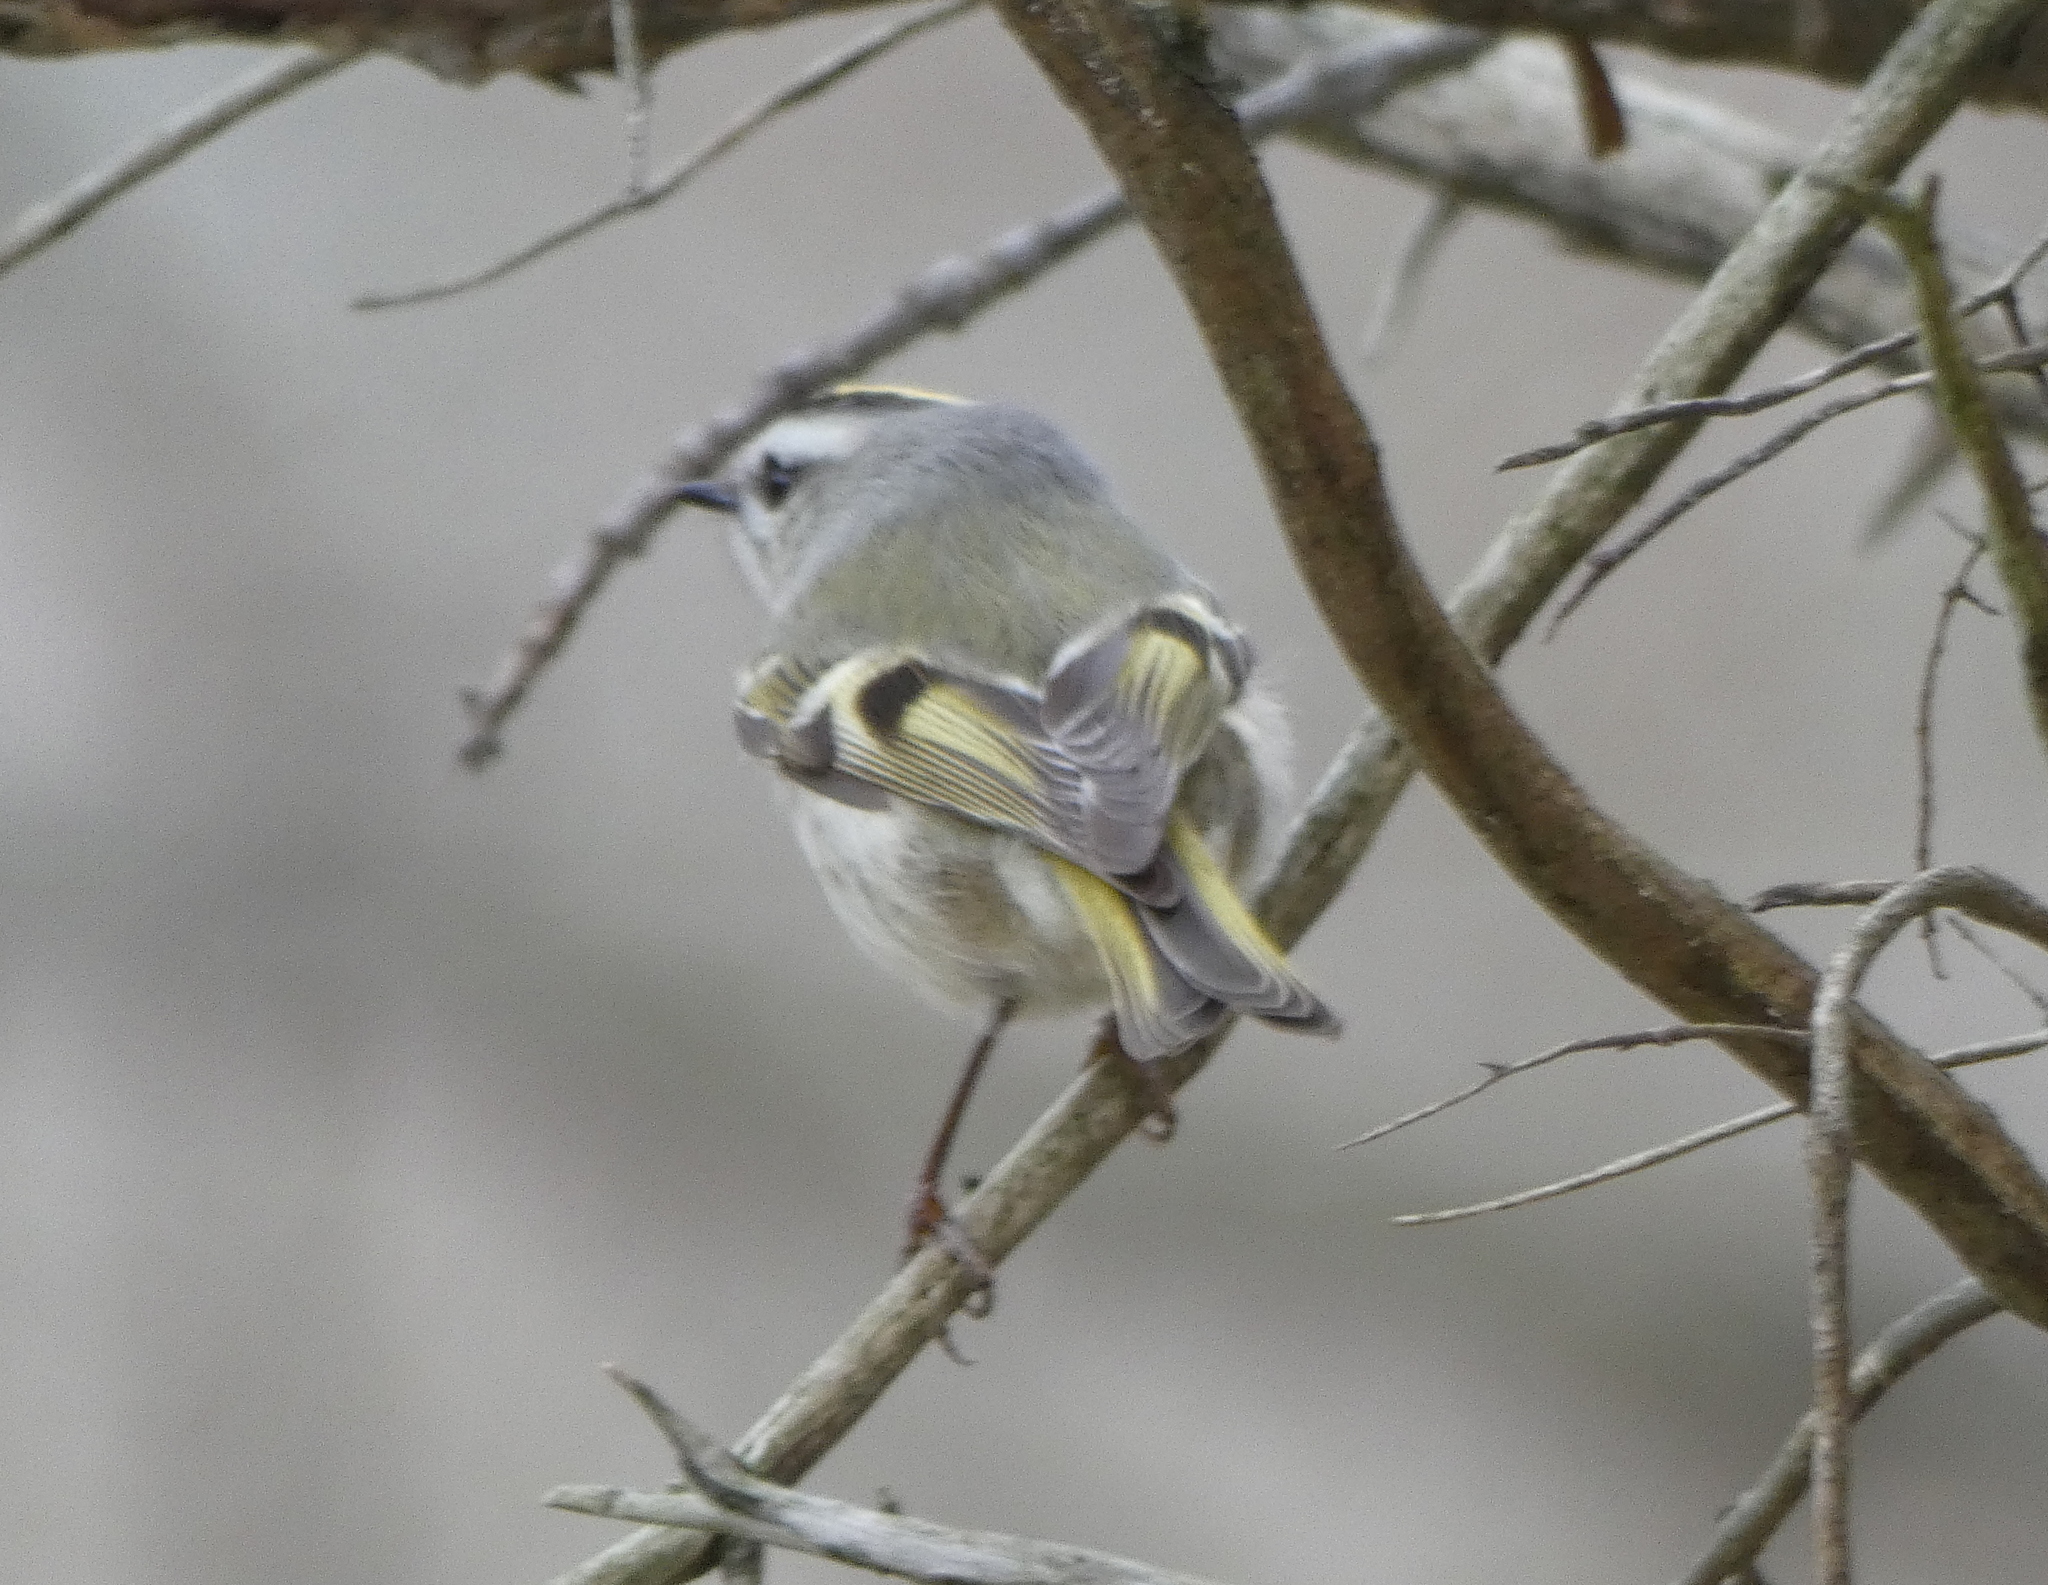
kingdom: Animalia
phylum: Chordata
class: Aves
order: Passeriformes
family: Regulidae
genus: Regulus
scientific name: Regulus satrapa
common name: Golden-crowned kinglet
